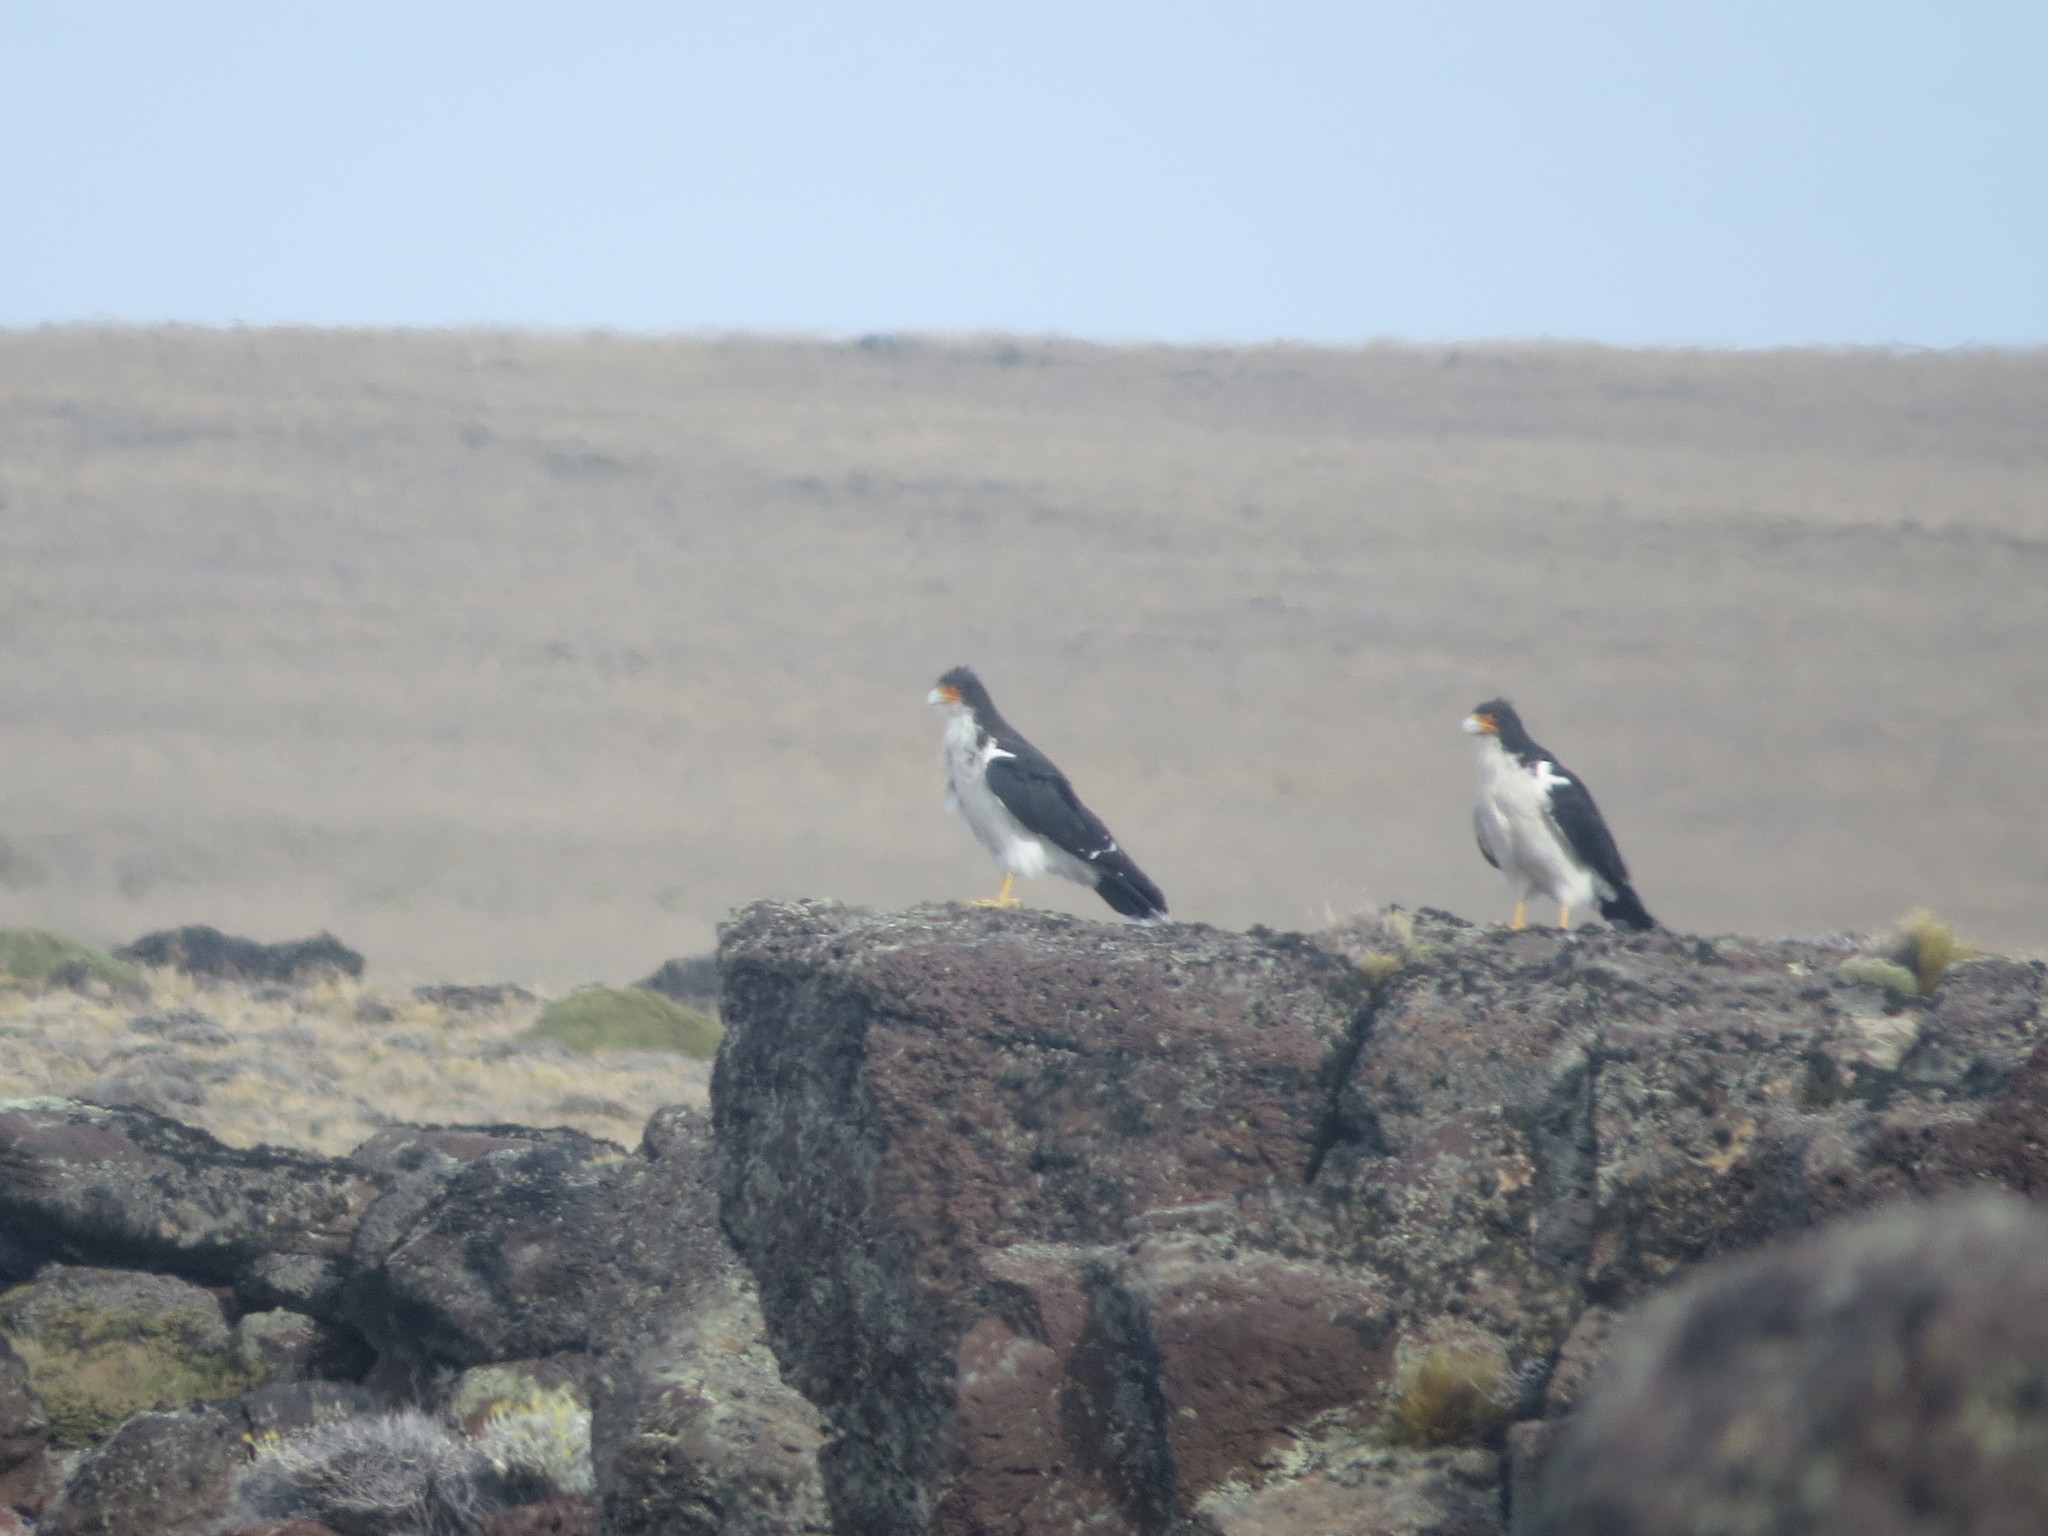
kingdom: Animalia
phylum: Chordata
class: Aves
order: Falconiformes
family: Falconidae
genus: Daptrius
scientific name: Daptrius
